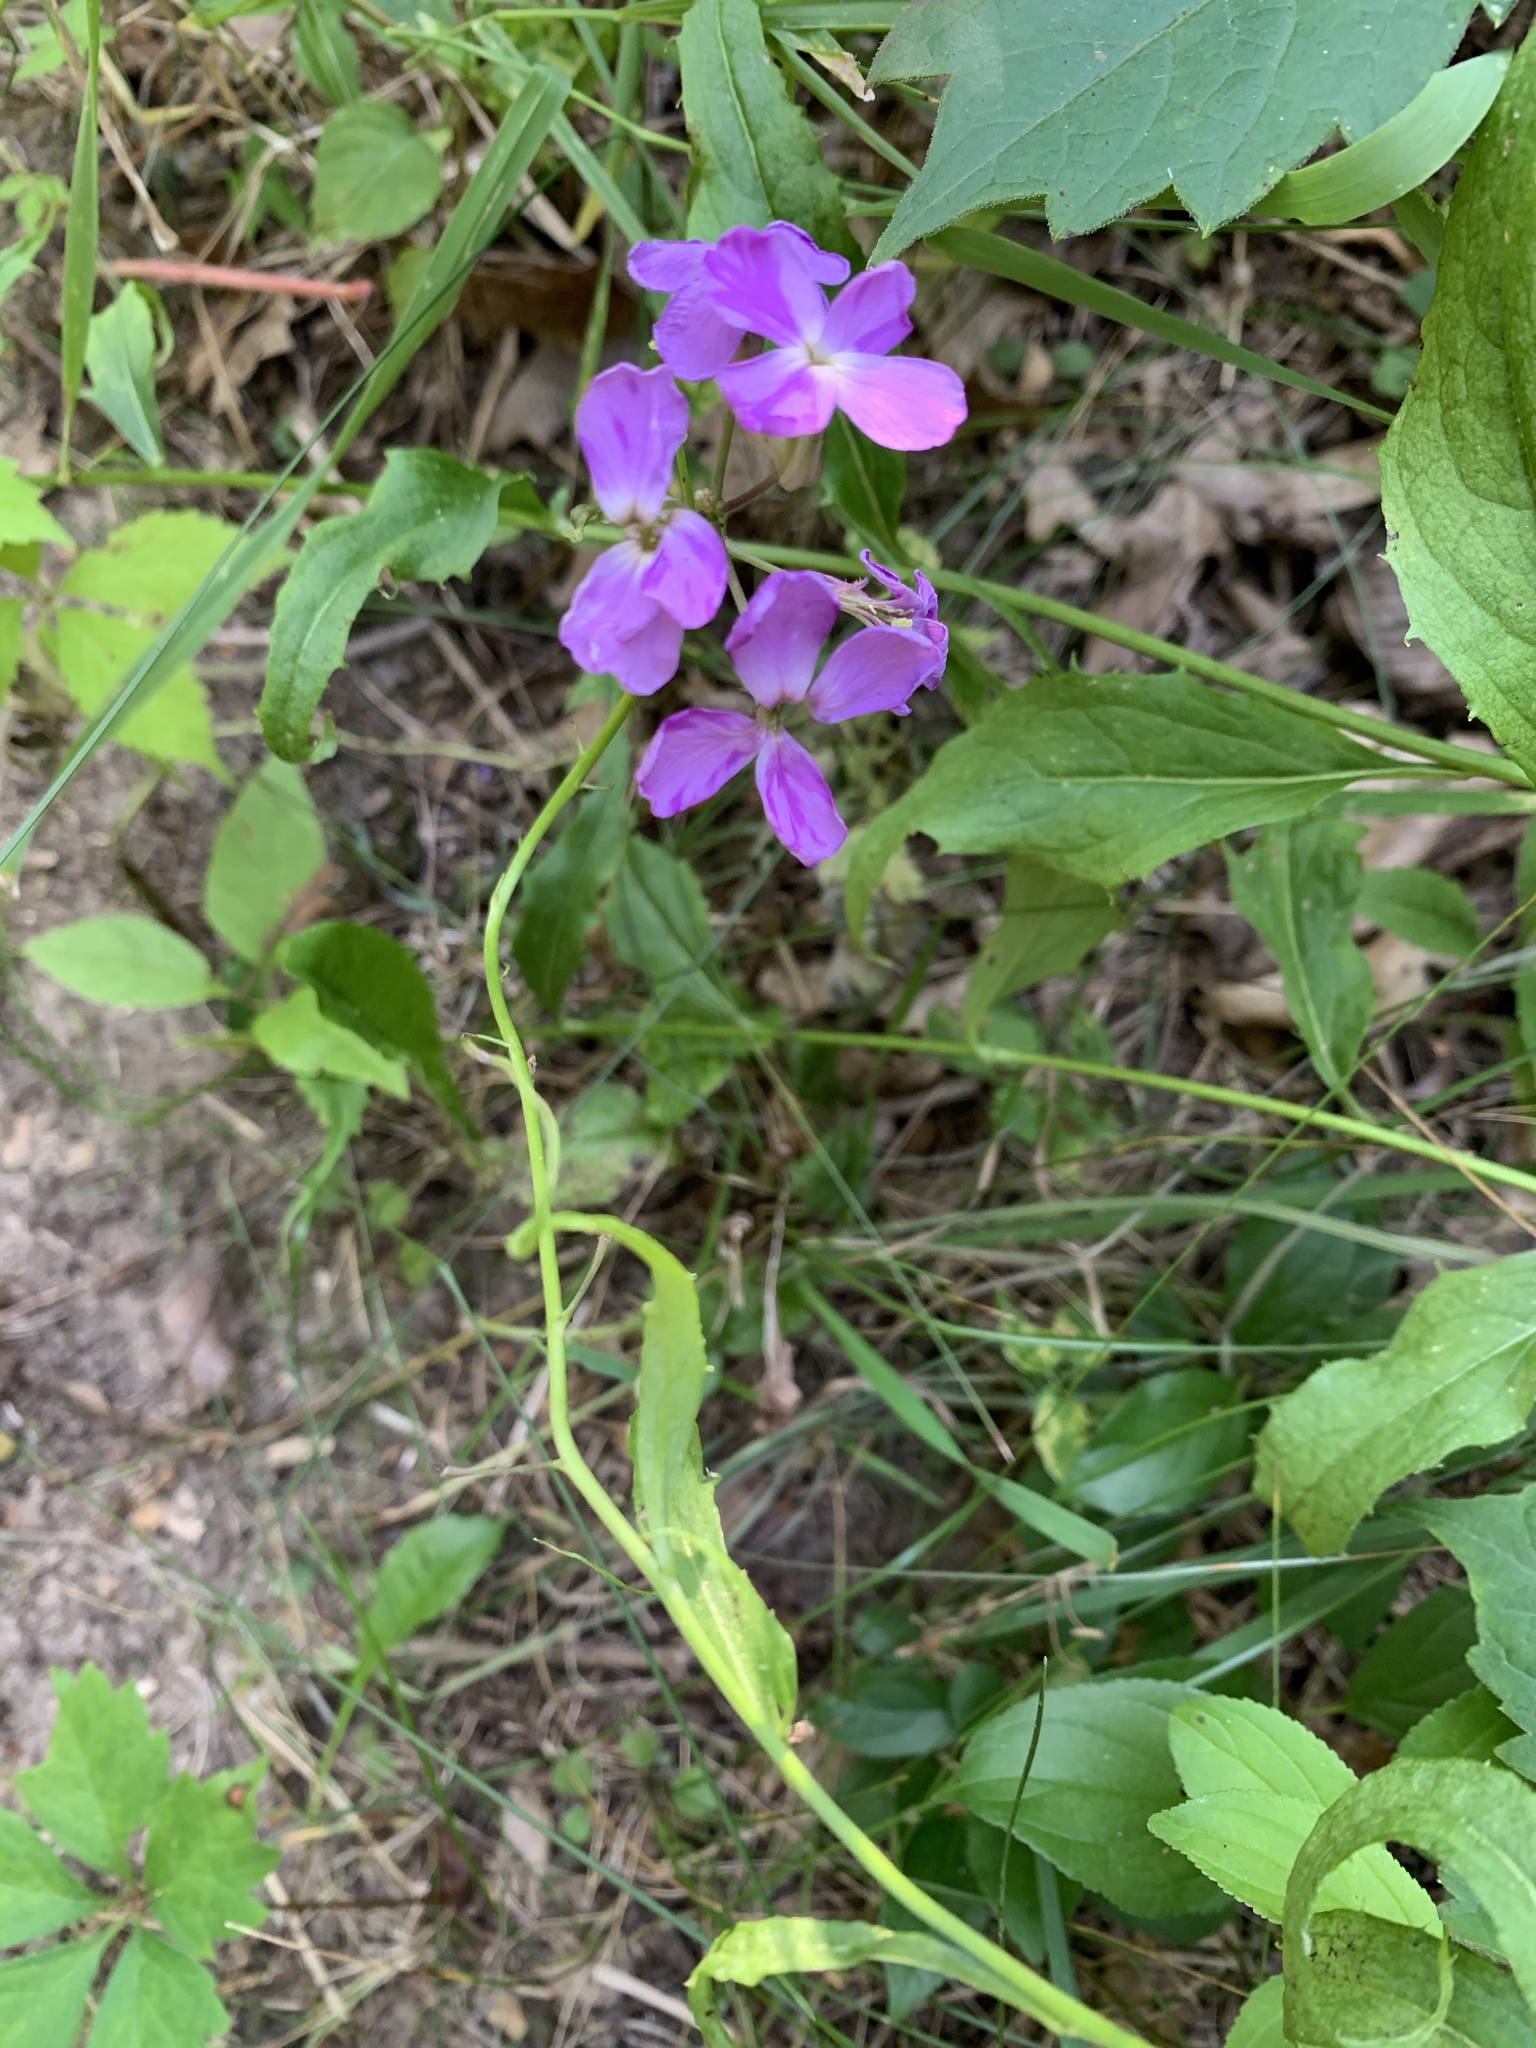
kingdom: Plantae
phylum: Tracheophyta
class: Magnoliopsida
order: Brassicales
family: Brassicaceae
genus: Hesperis
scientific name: Hesperis matronalis
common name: Dame's-violet
